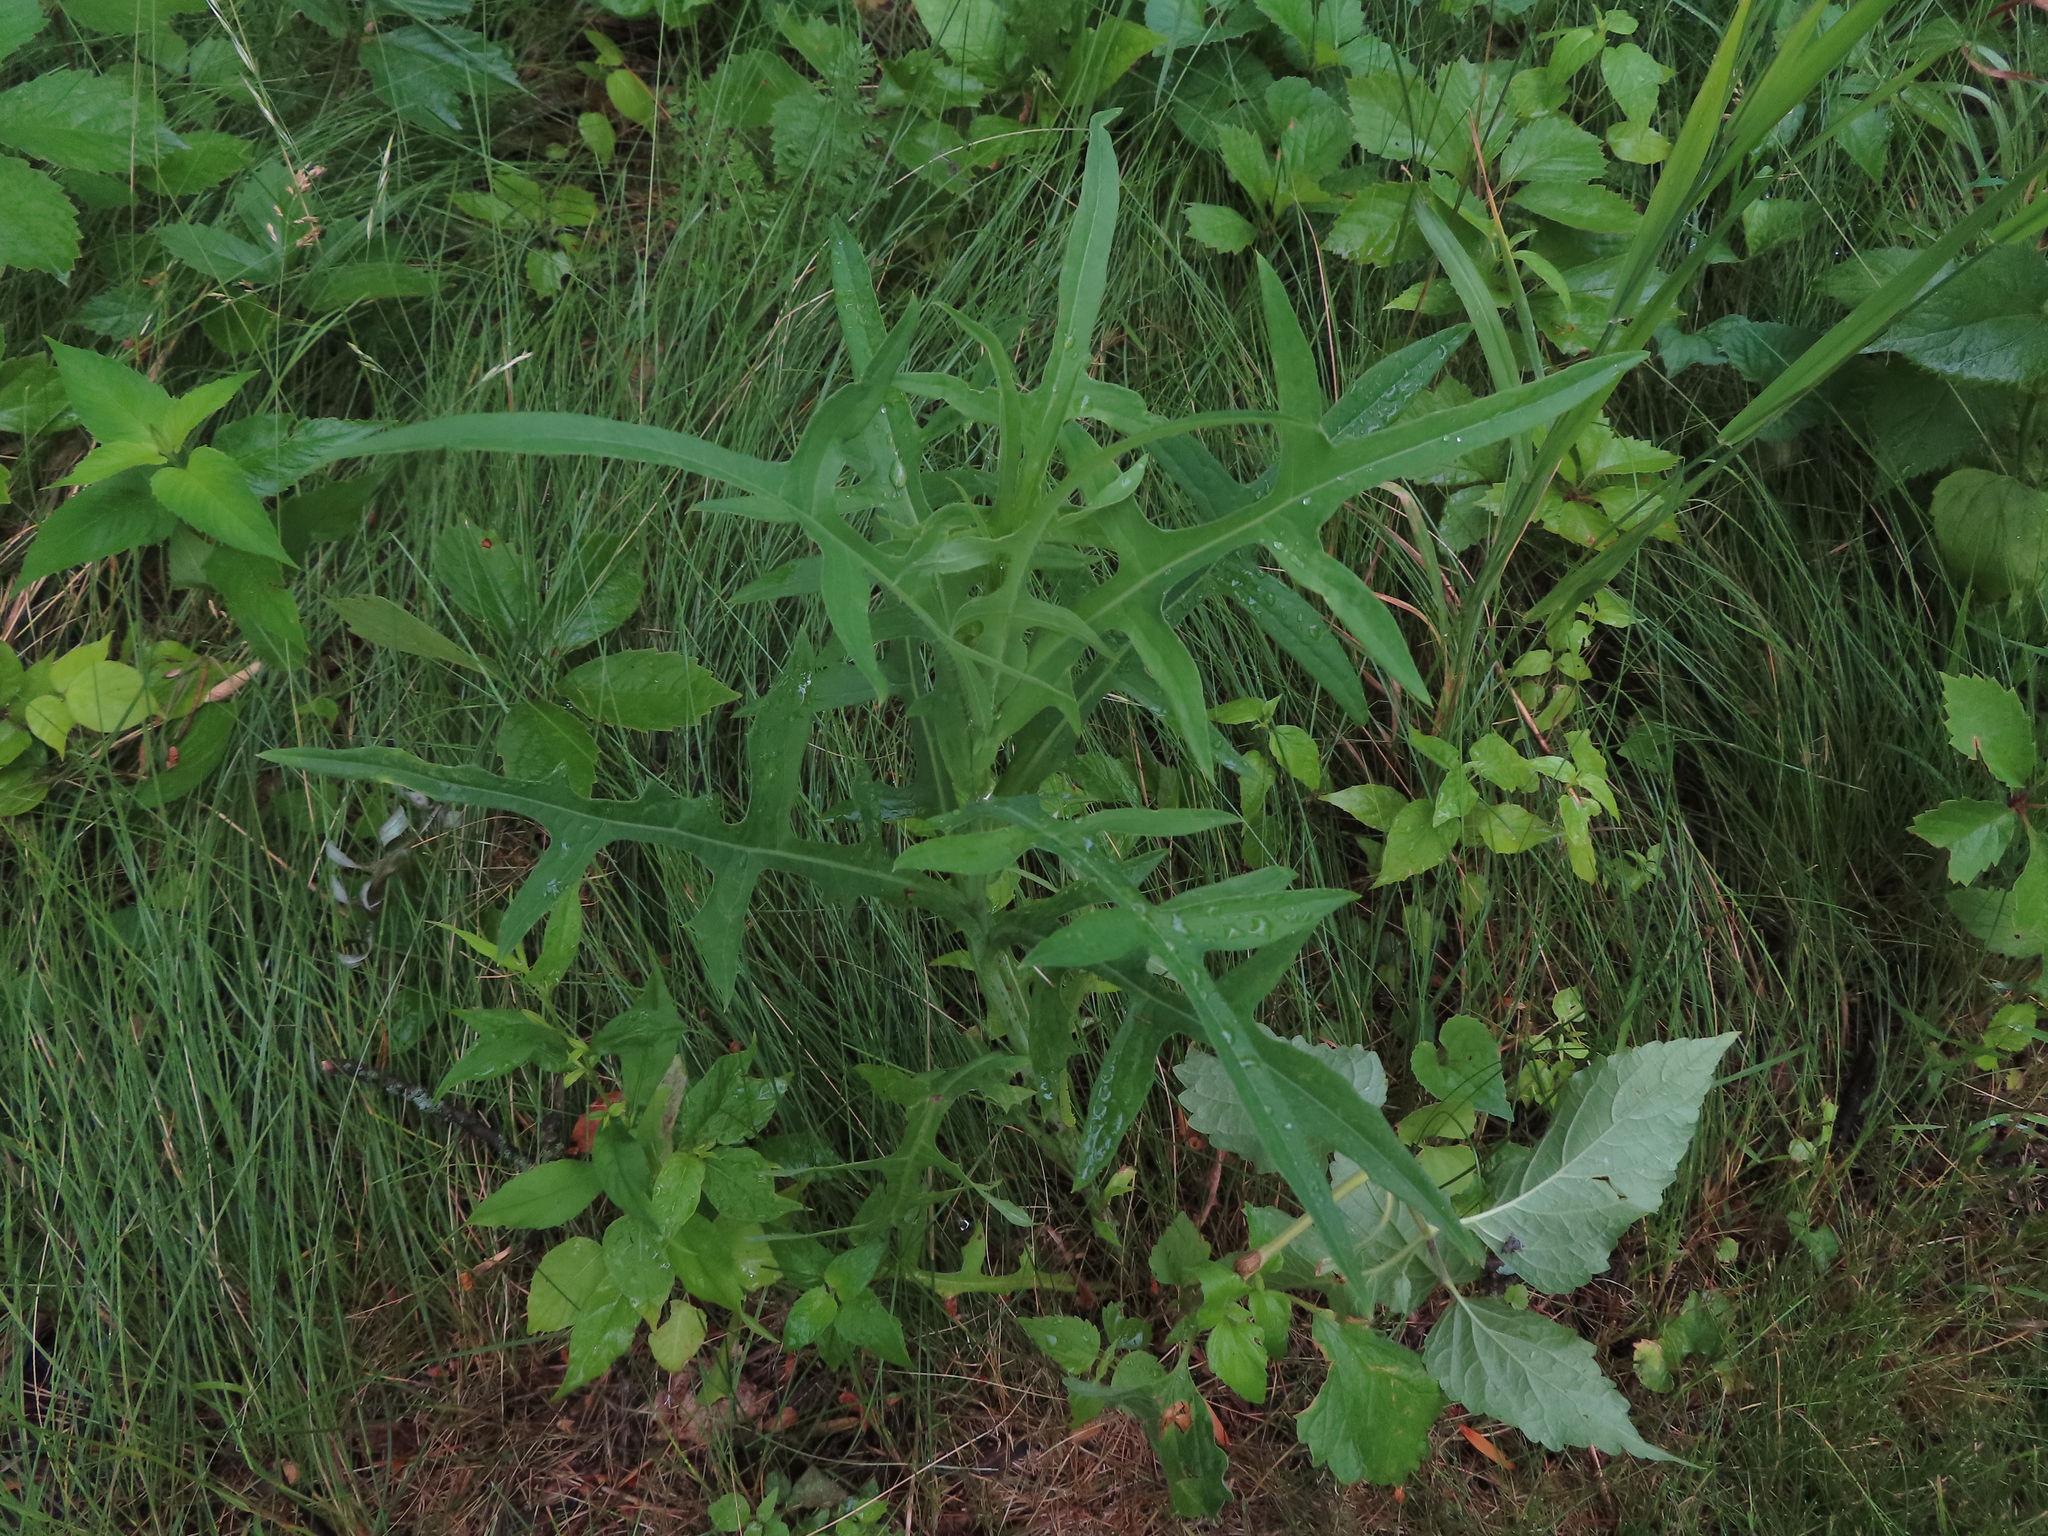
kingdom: Plantae
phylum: Tracheophyta
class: Magnoliopsida
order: Asterales
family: Asteraceae
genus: Lactuca
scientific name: Lactuca canadensis
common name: Canada lettuce
